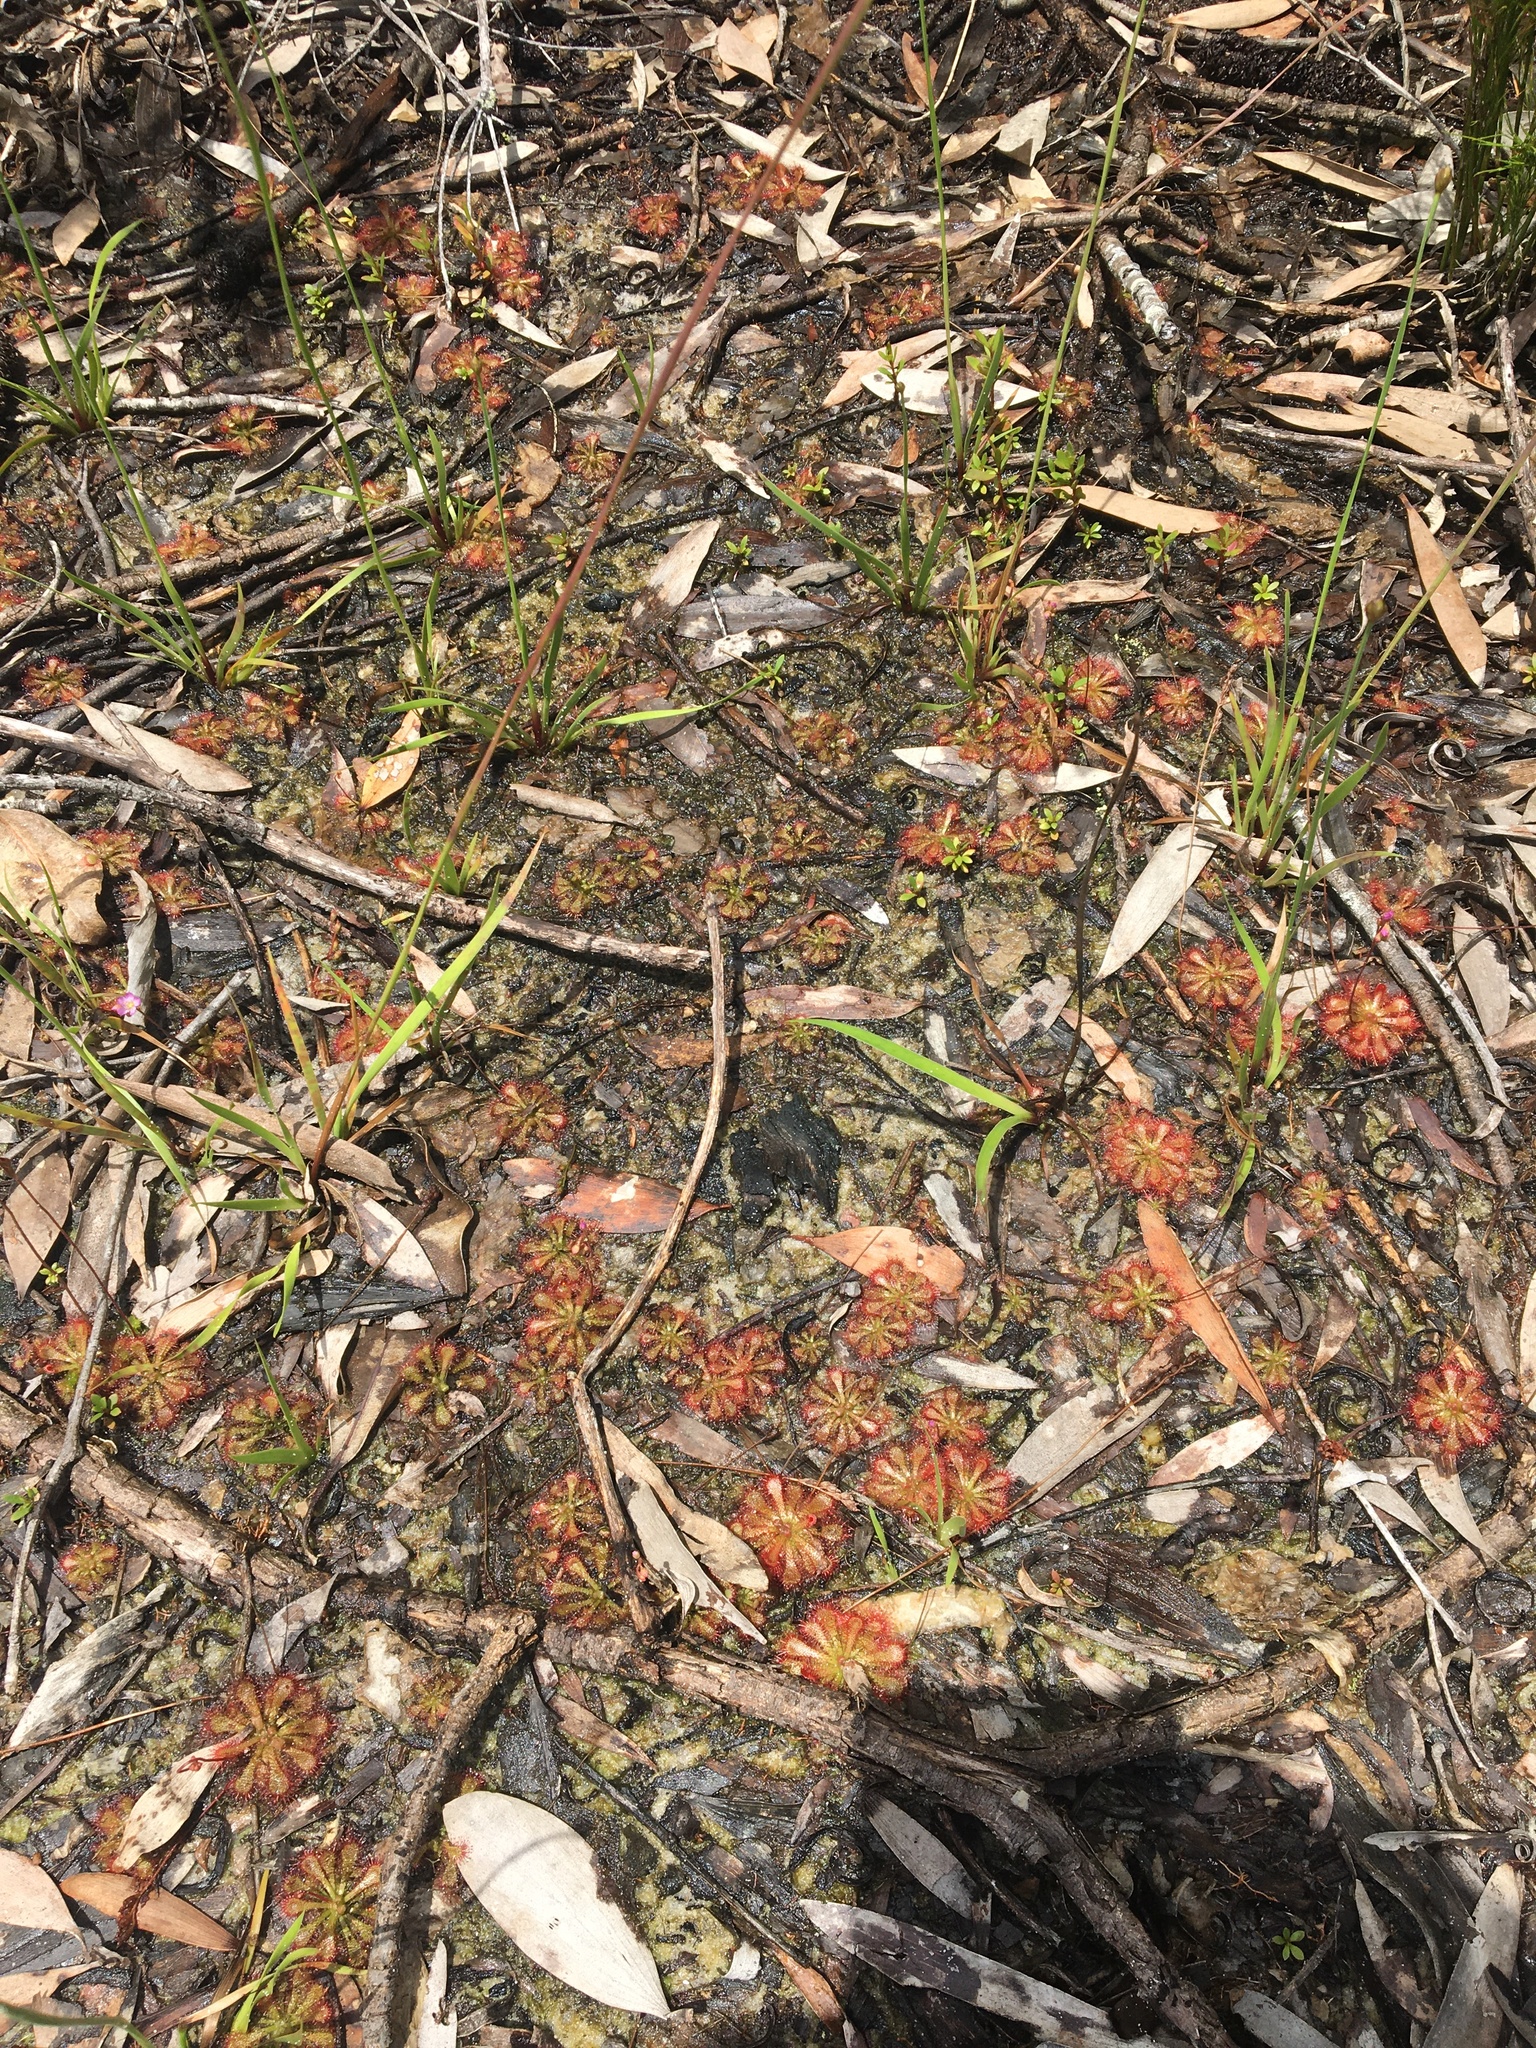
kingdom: Plantae
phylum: Tracheophyta
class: Magnoliopsida
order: Caryophyllales
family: Droseraceae
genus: Drosera
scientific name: Drosera spatulata
